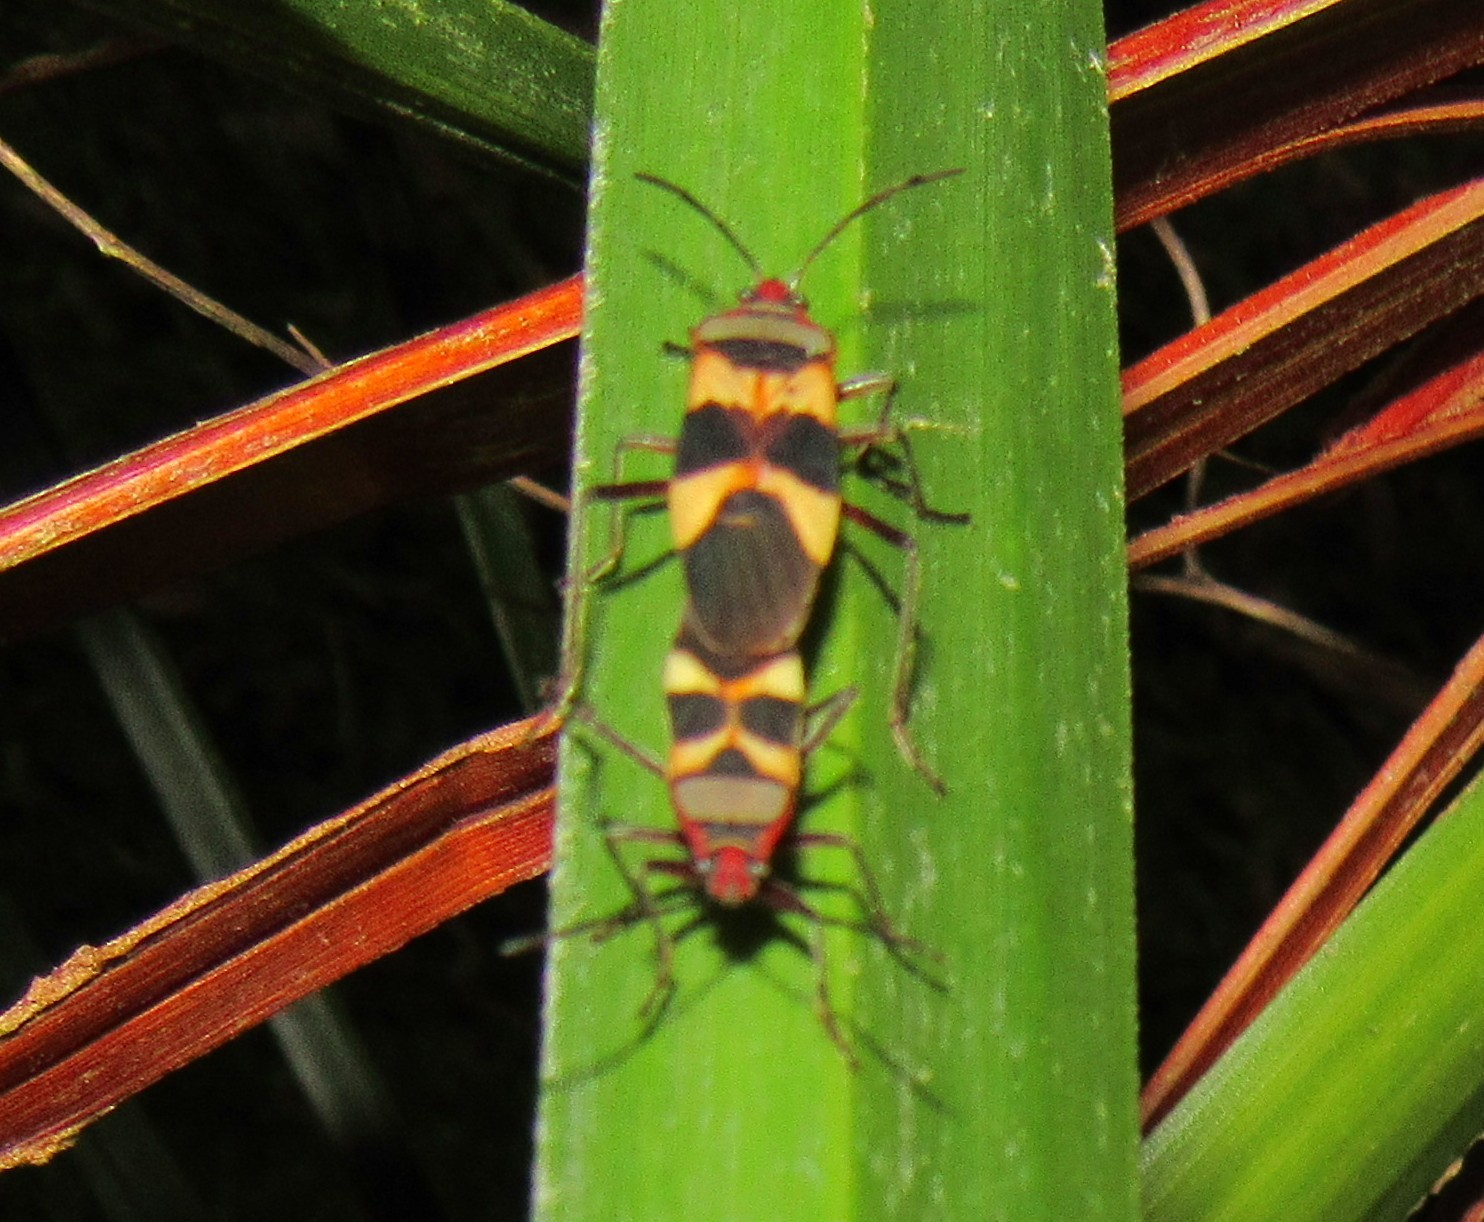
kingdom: Animalia
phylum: Arthropoda
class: Insecta
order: Hemiptera
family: Lygaeidae
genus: Oncopeltus
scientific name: Oncopeltus unifasciatellus
